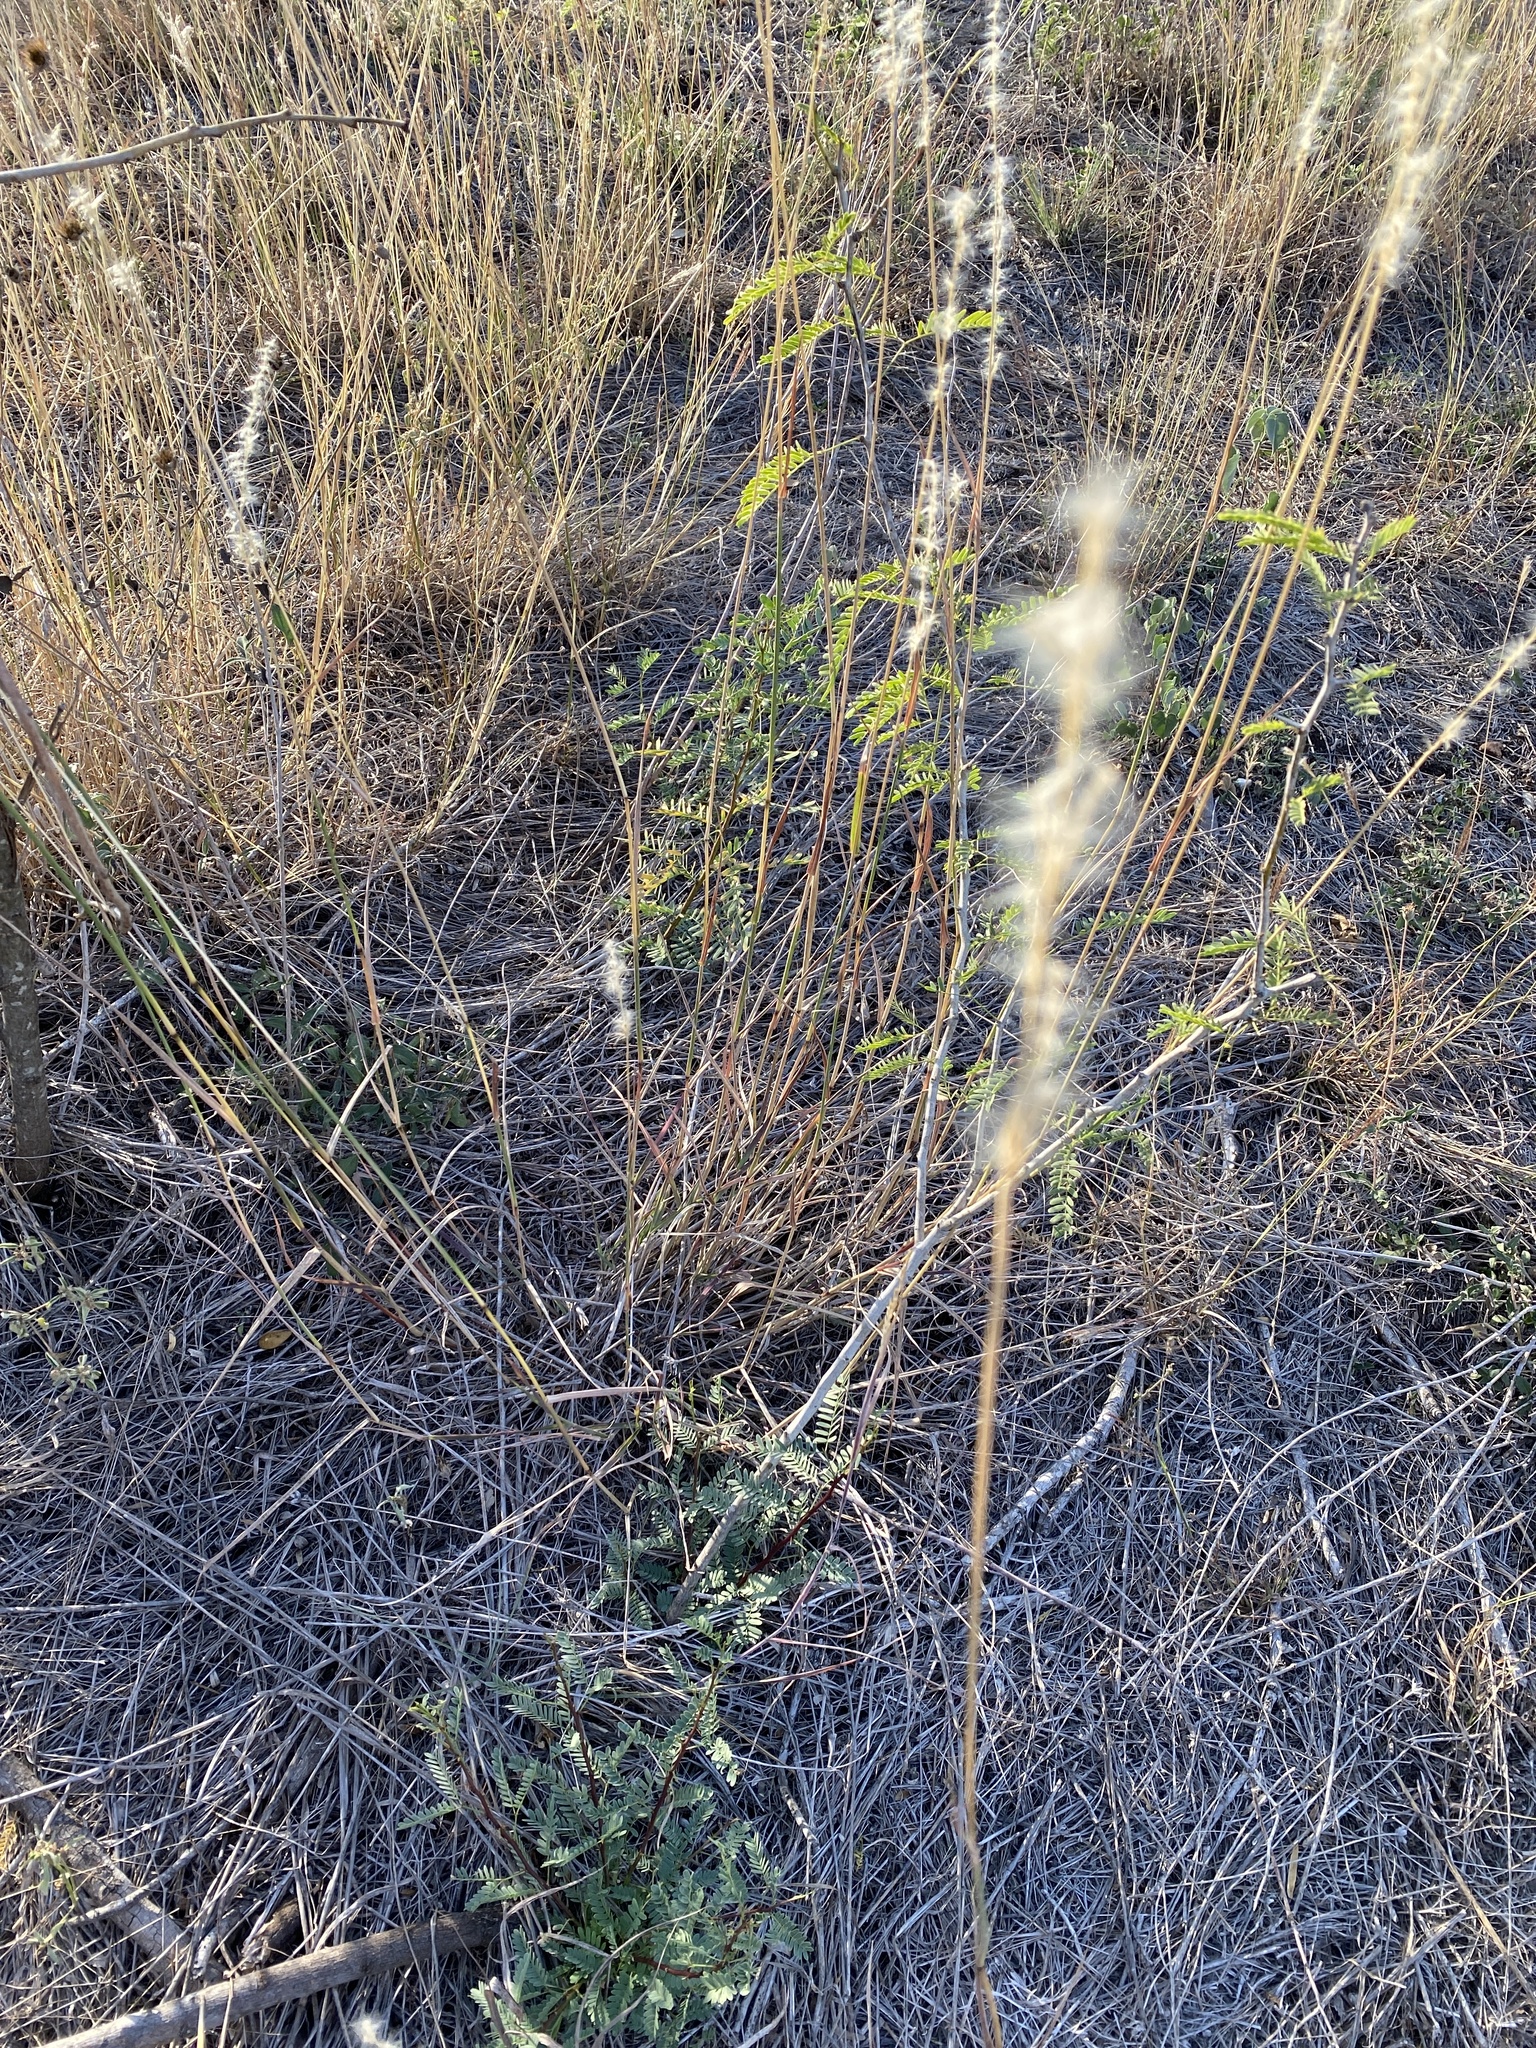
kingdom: Plantae
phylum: Tracheophyta
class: Liliopsida
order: Poales
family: Poaceae
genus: Bothriochloa
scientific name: Bothriochloa torreyana
